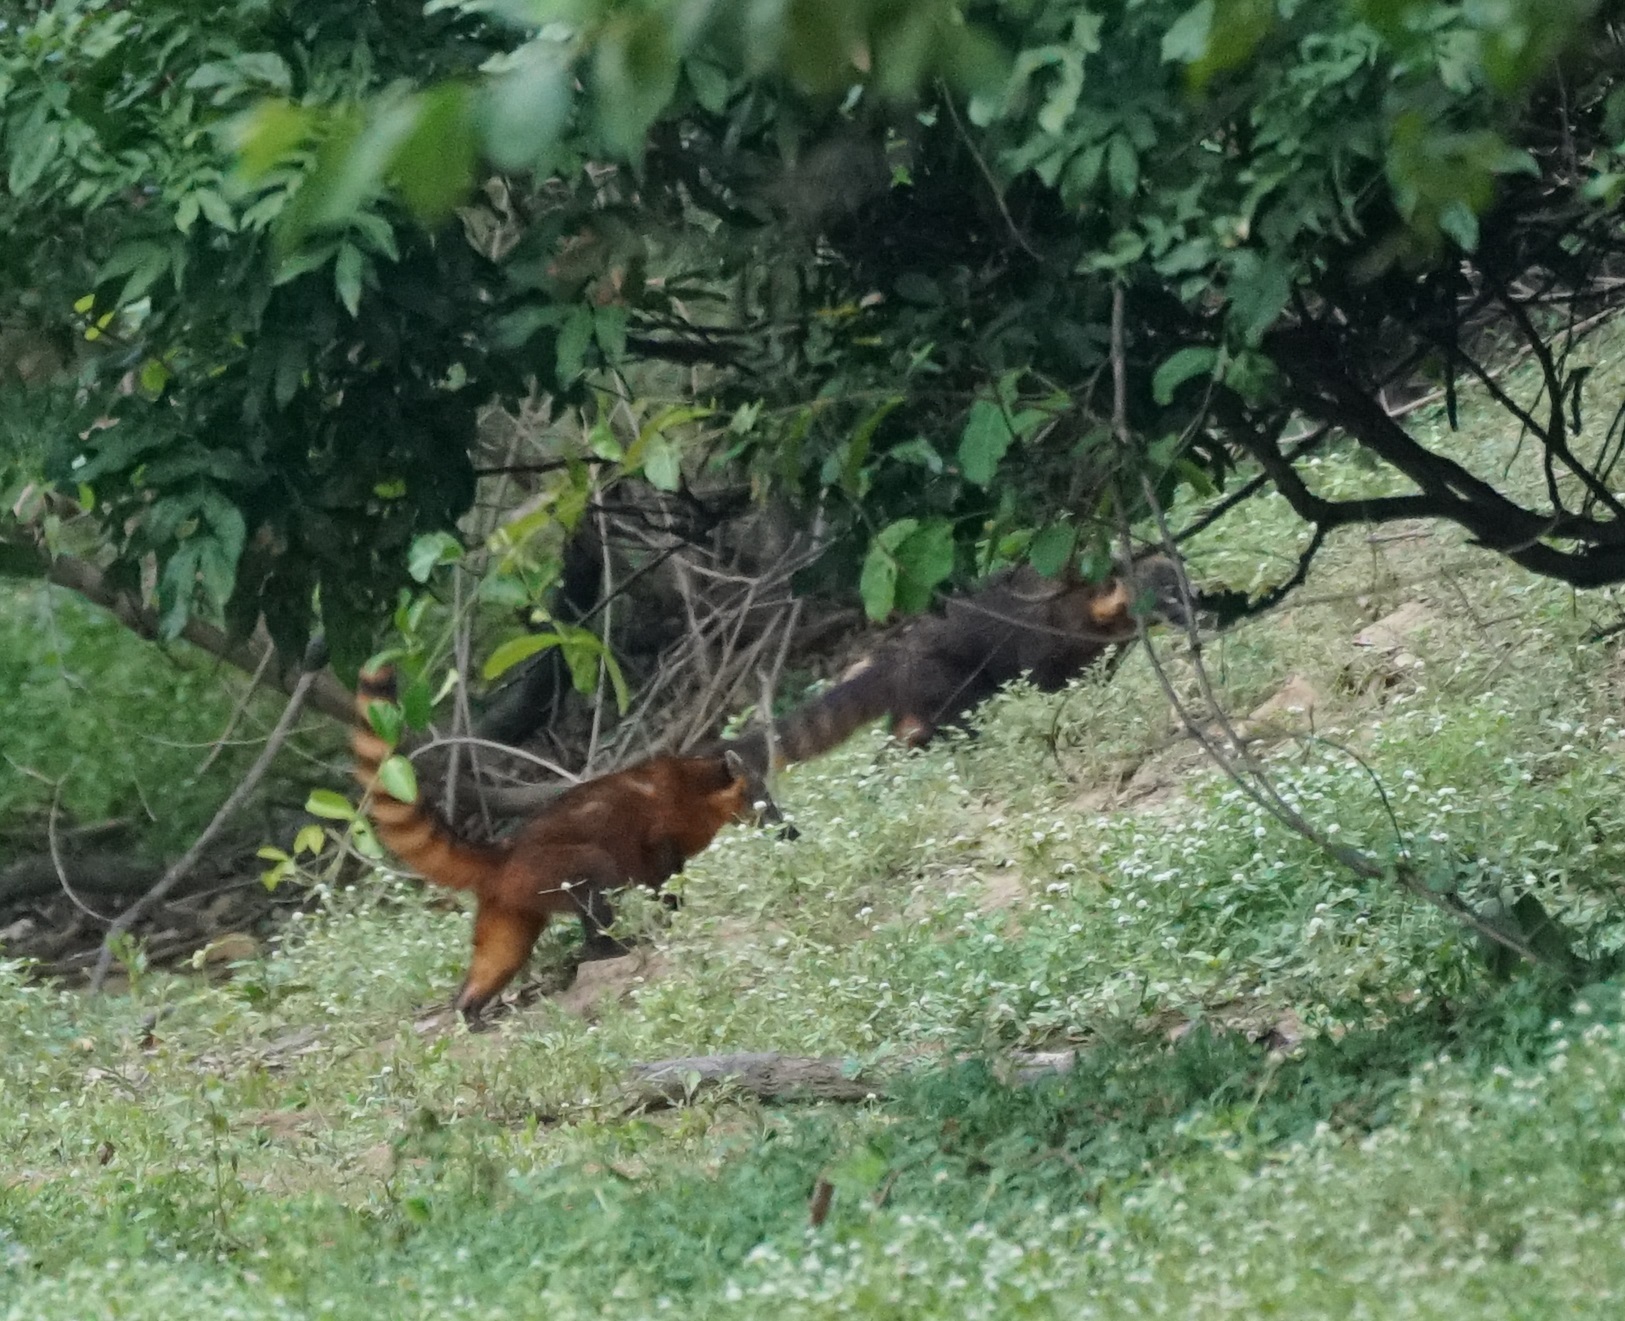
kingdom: Animalia
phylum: Chordata
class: Mammalia
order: Carnivora
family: Procyonidae
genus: Nasua
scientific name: Nasua nasua
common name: South american coati
